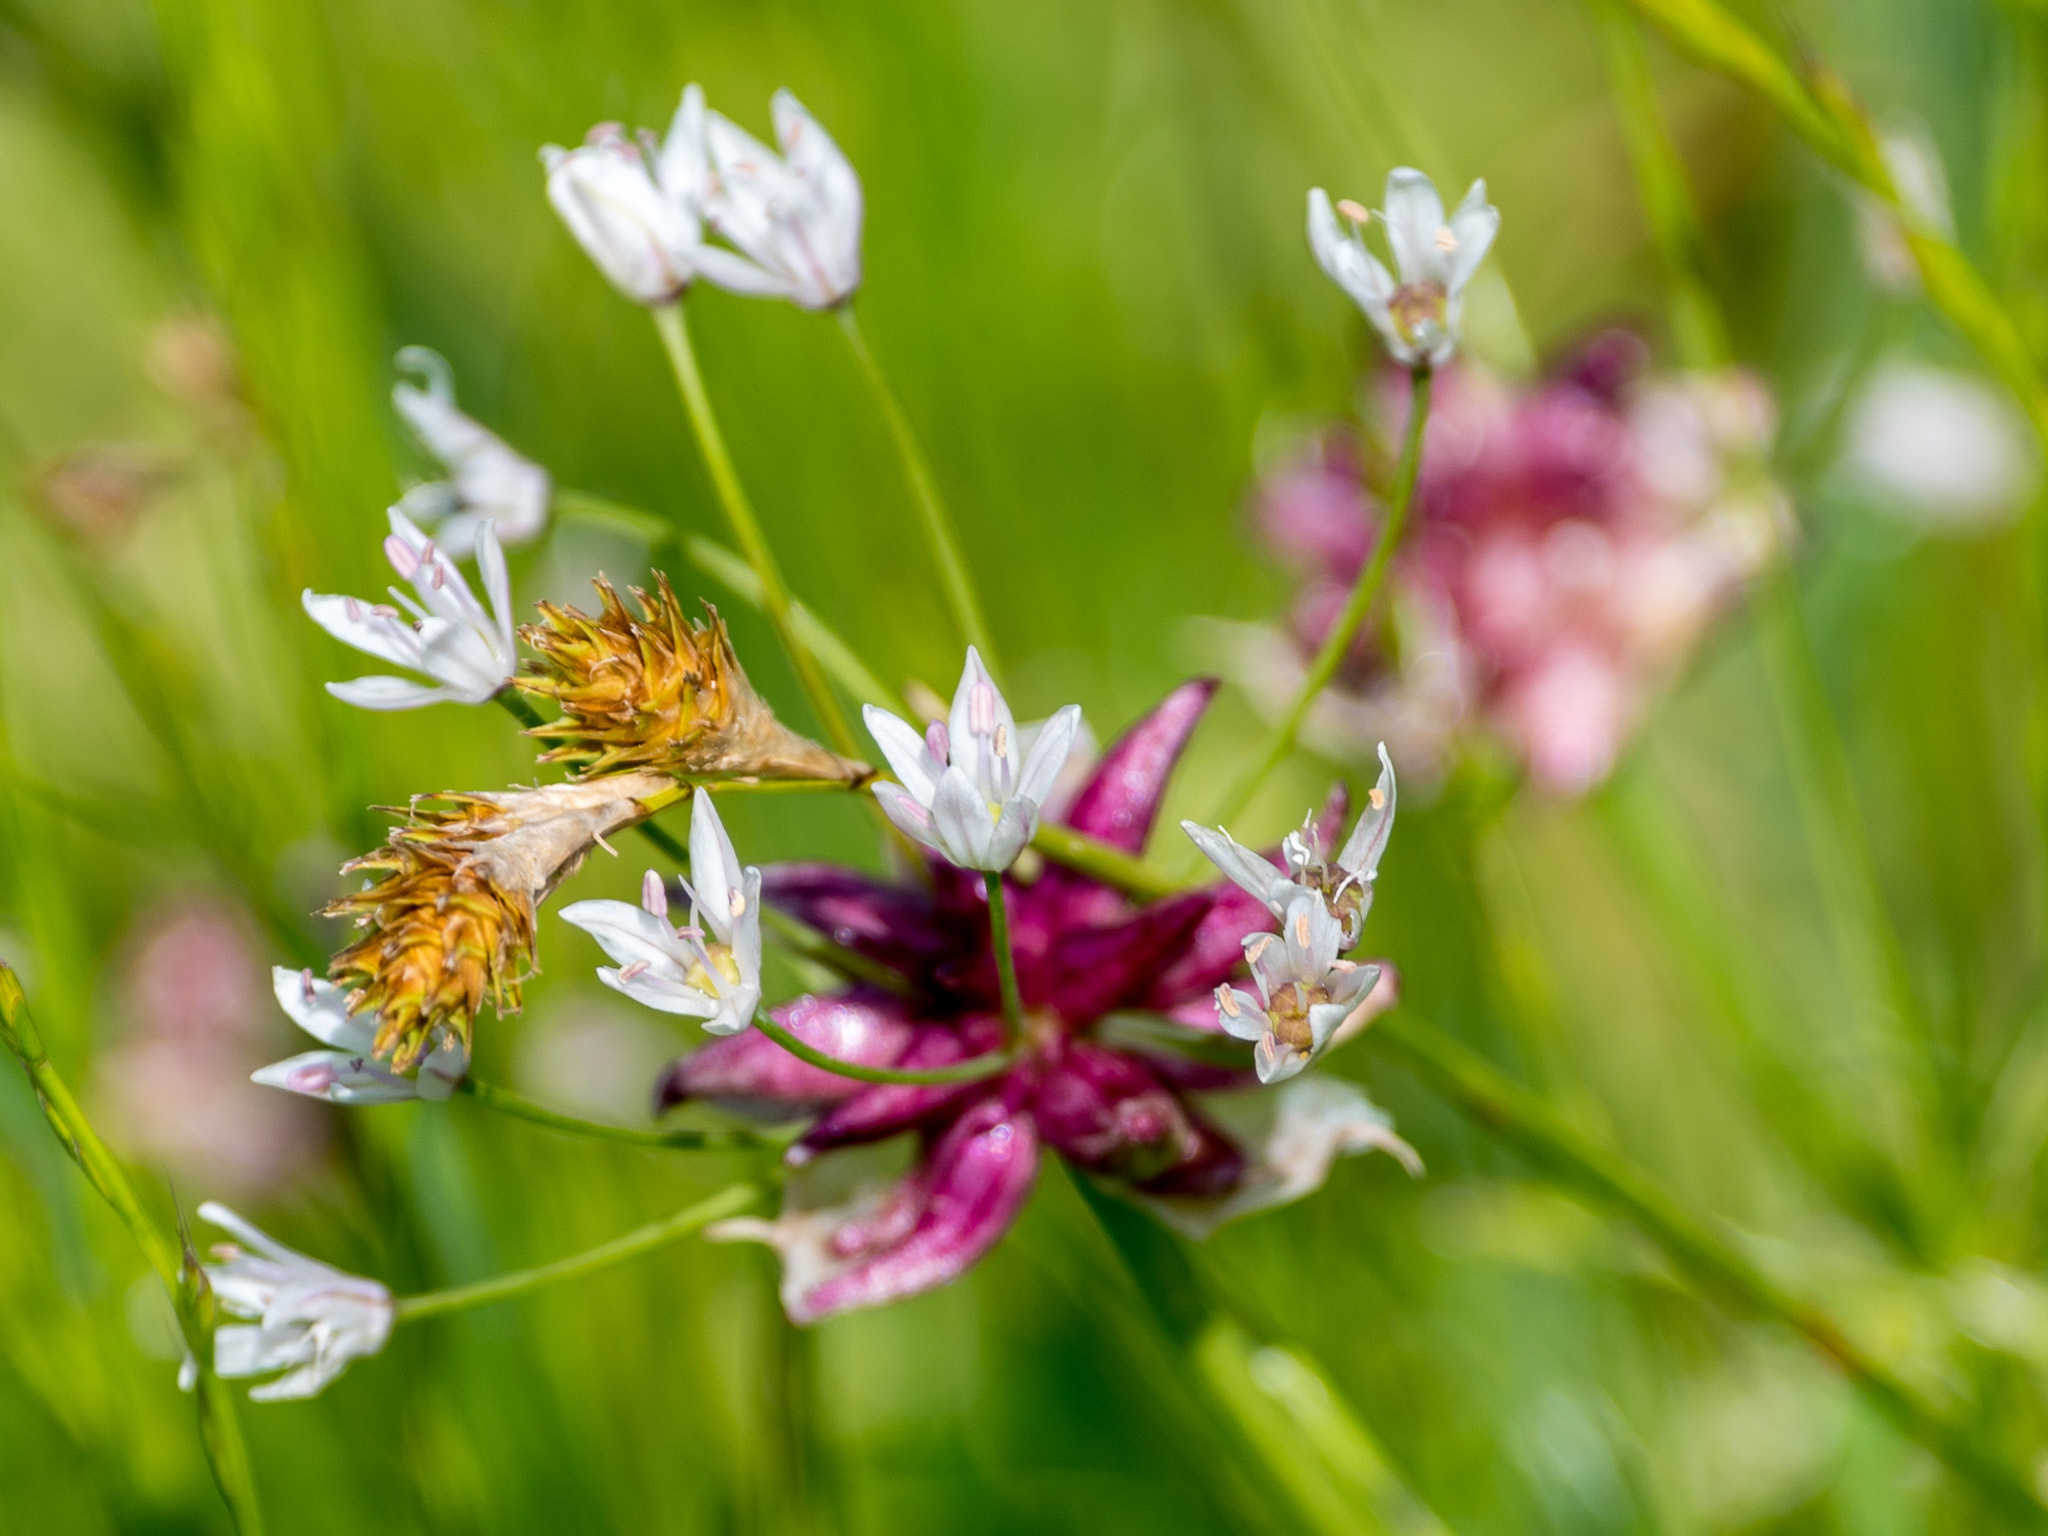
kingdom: Plantae
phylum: Tracheophyta
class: Liliopsida
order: Asparagales
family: Amaryllidaceae
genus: Allium
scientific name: Allium canadense
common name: Meadow garlic
